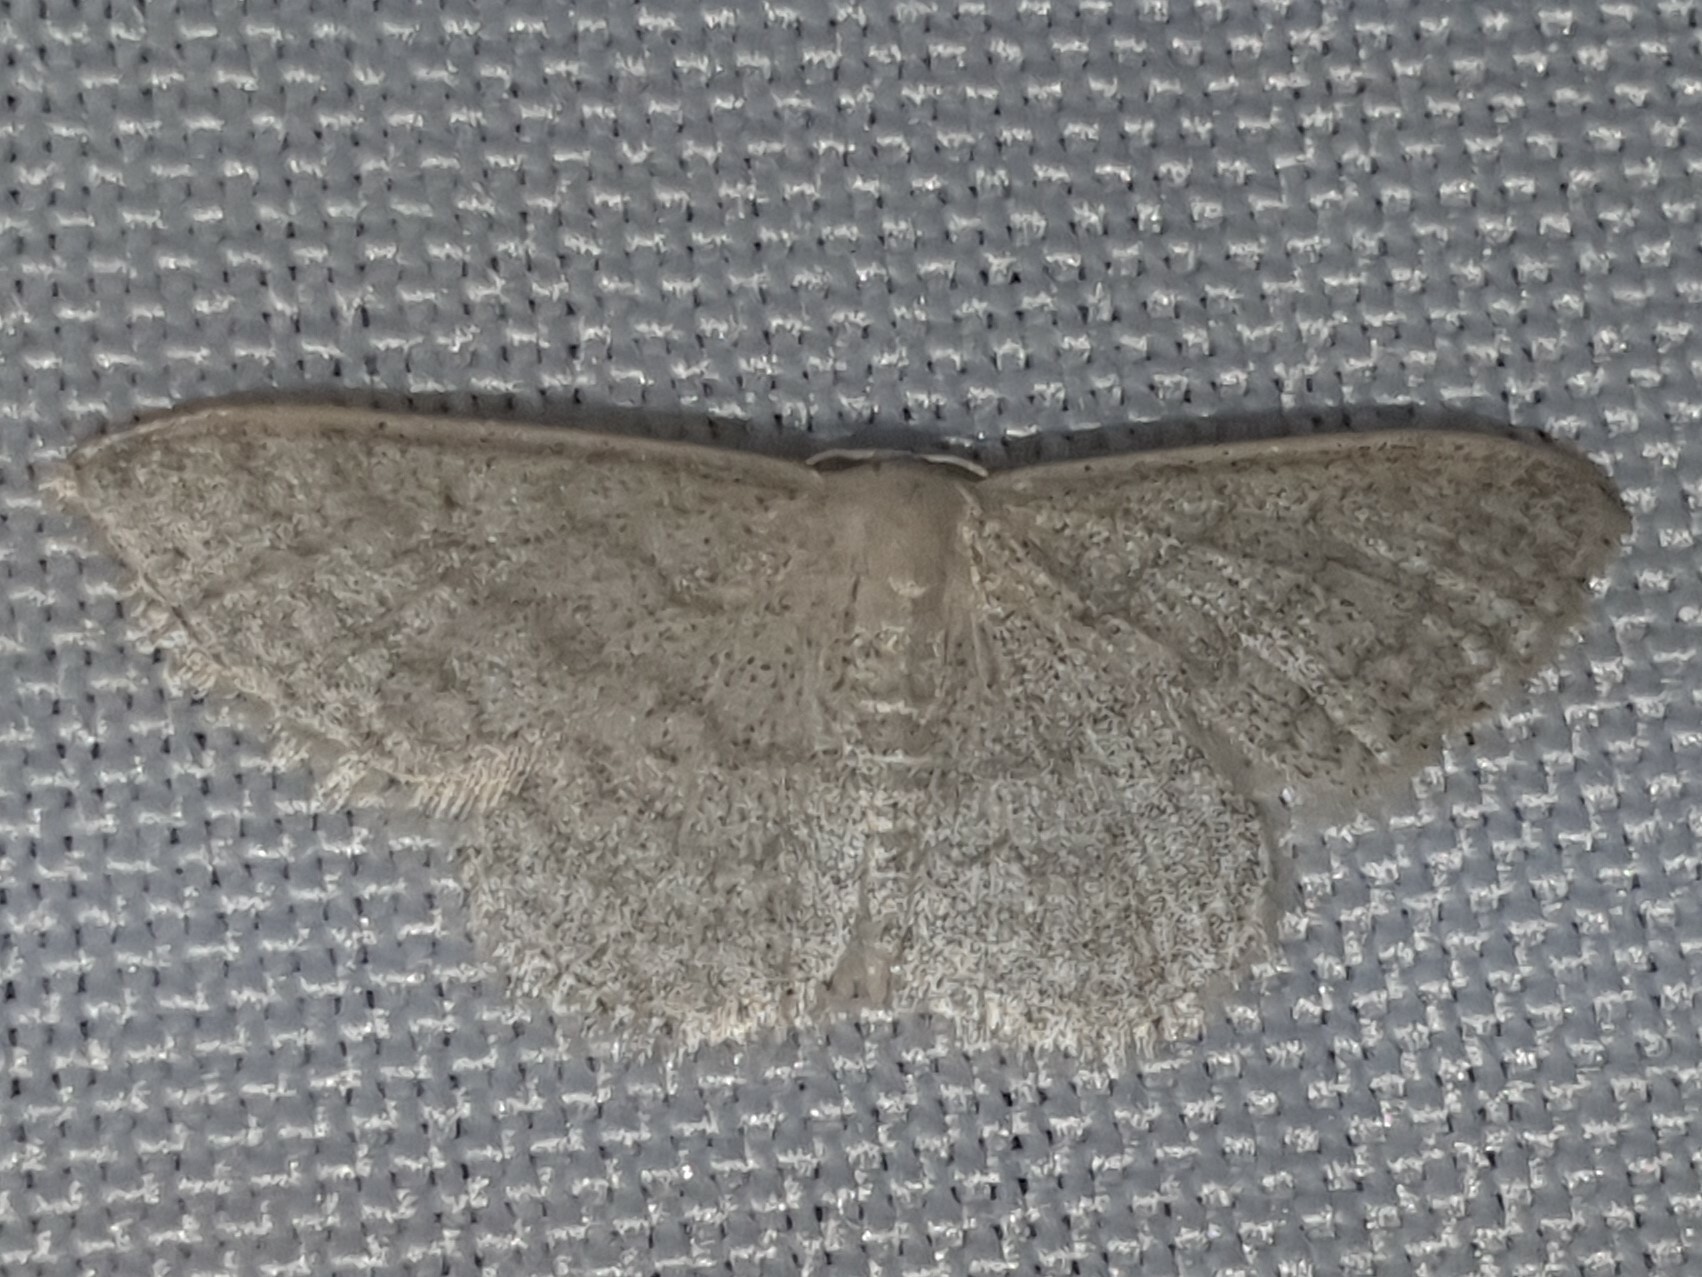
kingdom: Animalia
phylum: Arthropoda
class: Insecta
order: Lepidoptera
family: Geometridae
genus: Idaea
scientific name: Idaea subsericeata
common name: Satin wave
